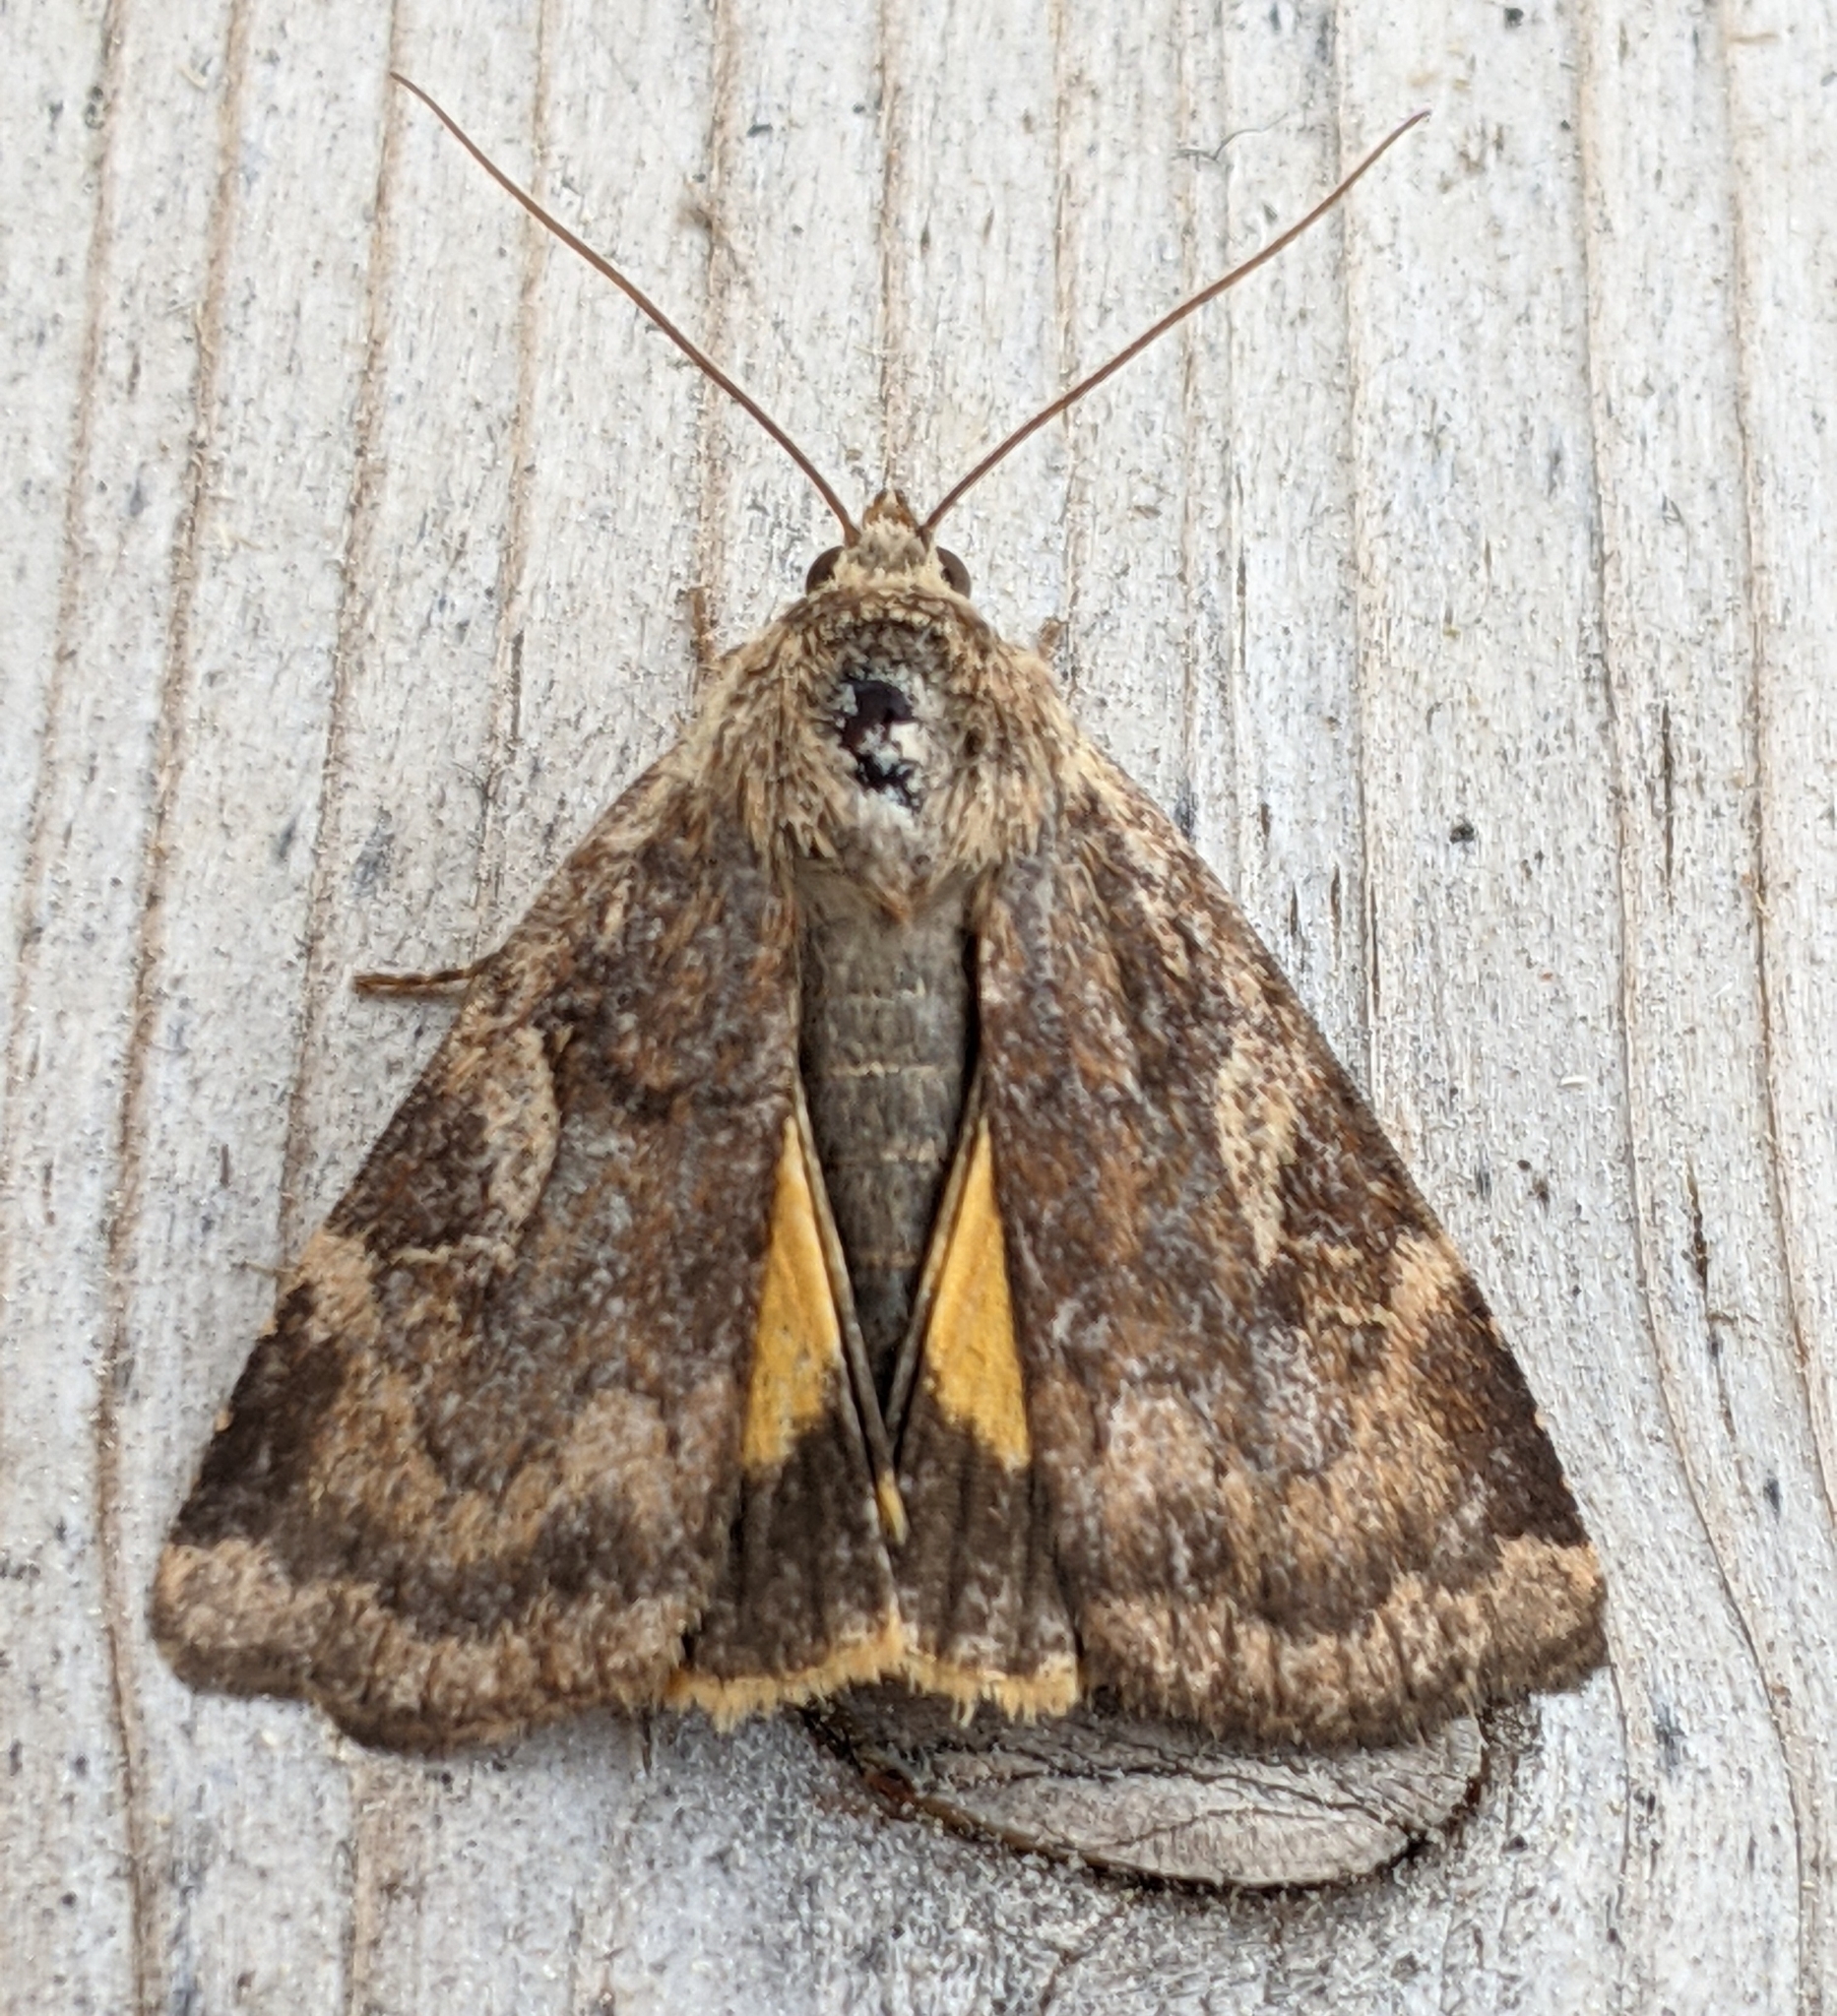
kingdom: Animalia
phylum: Arthropoda
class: Insecta
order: Lepidoptera
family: Noctuidae
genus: Cryptocala
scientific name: Cryptocala acadiensis
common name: Catocaline dart
